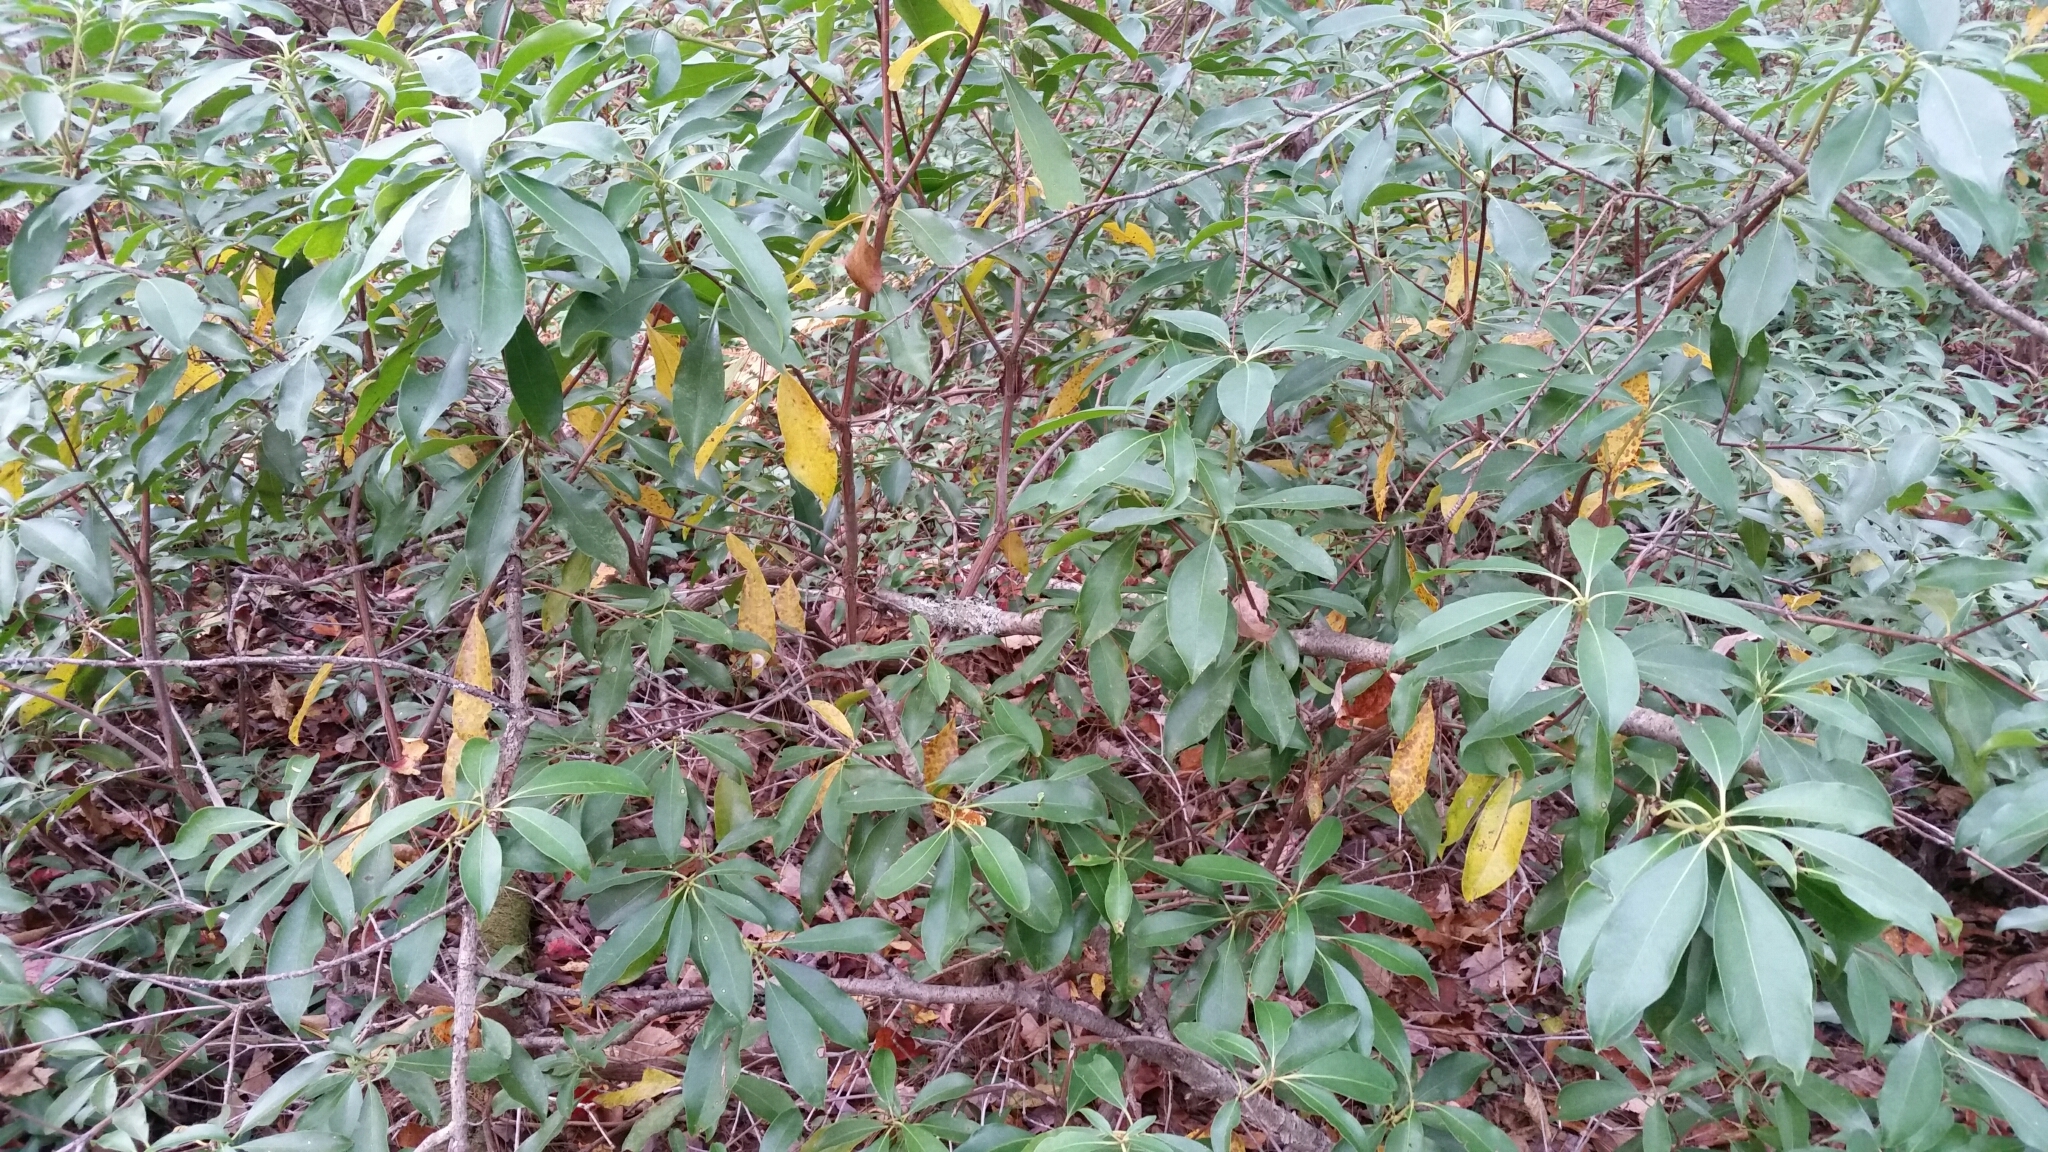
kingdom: Plantae
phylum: Tracheophyta
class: Magnoliopsida
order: Ericales
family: Ericaceae
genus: Kalmia
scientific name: Kalmia latifolia
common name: Mountain-laurel
